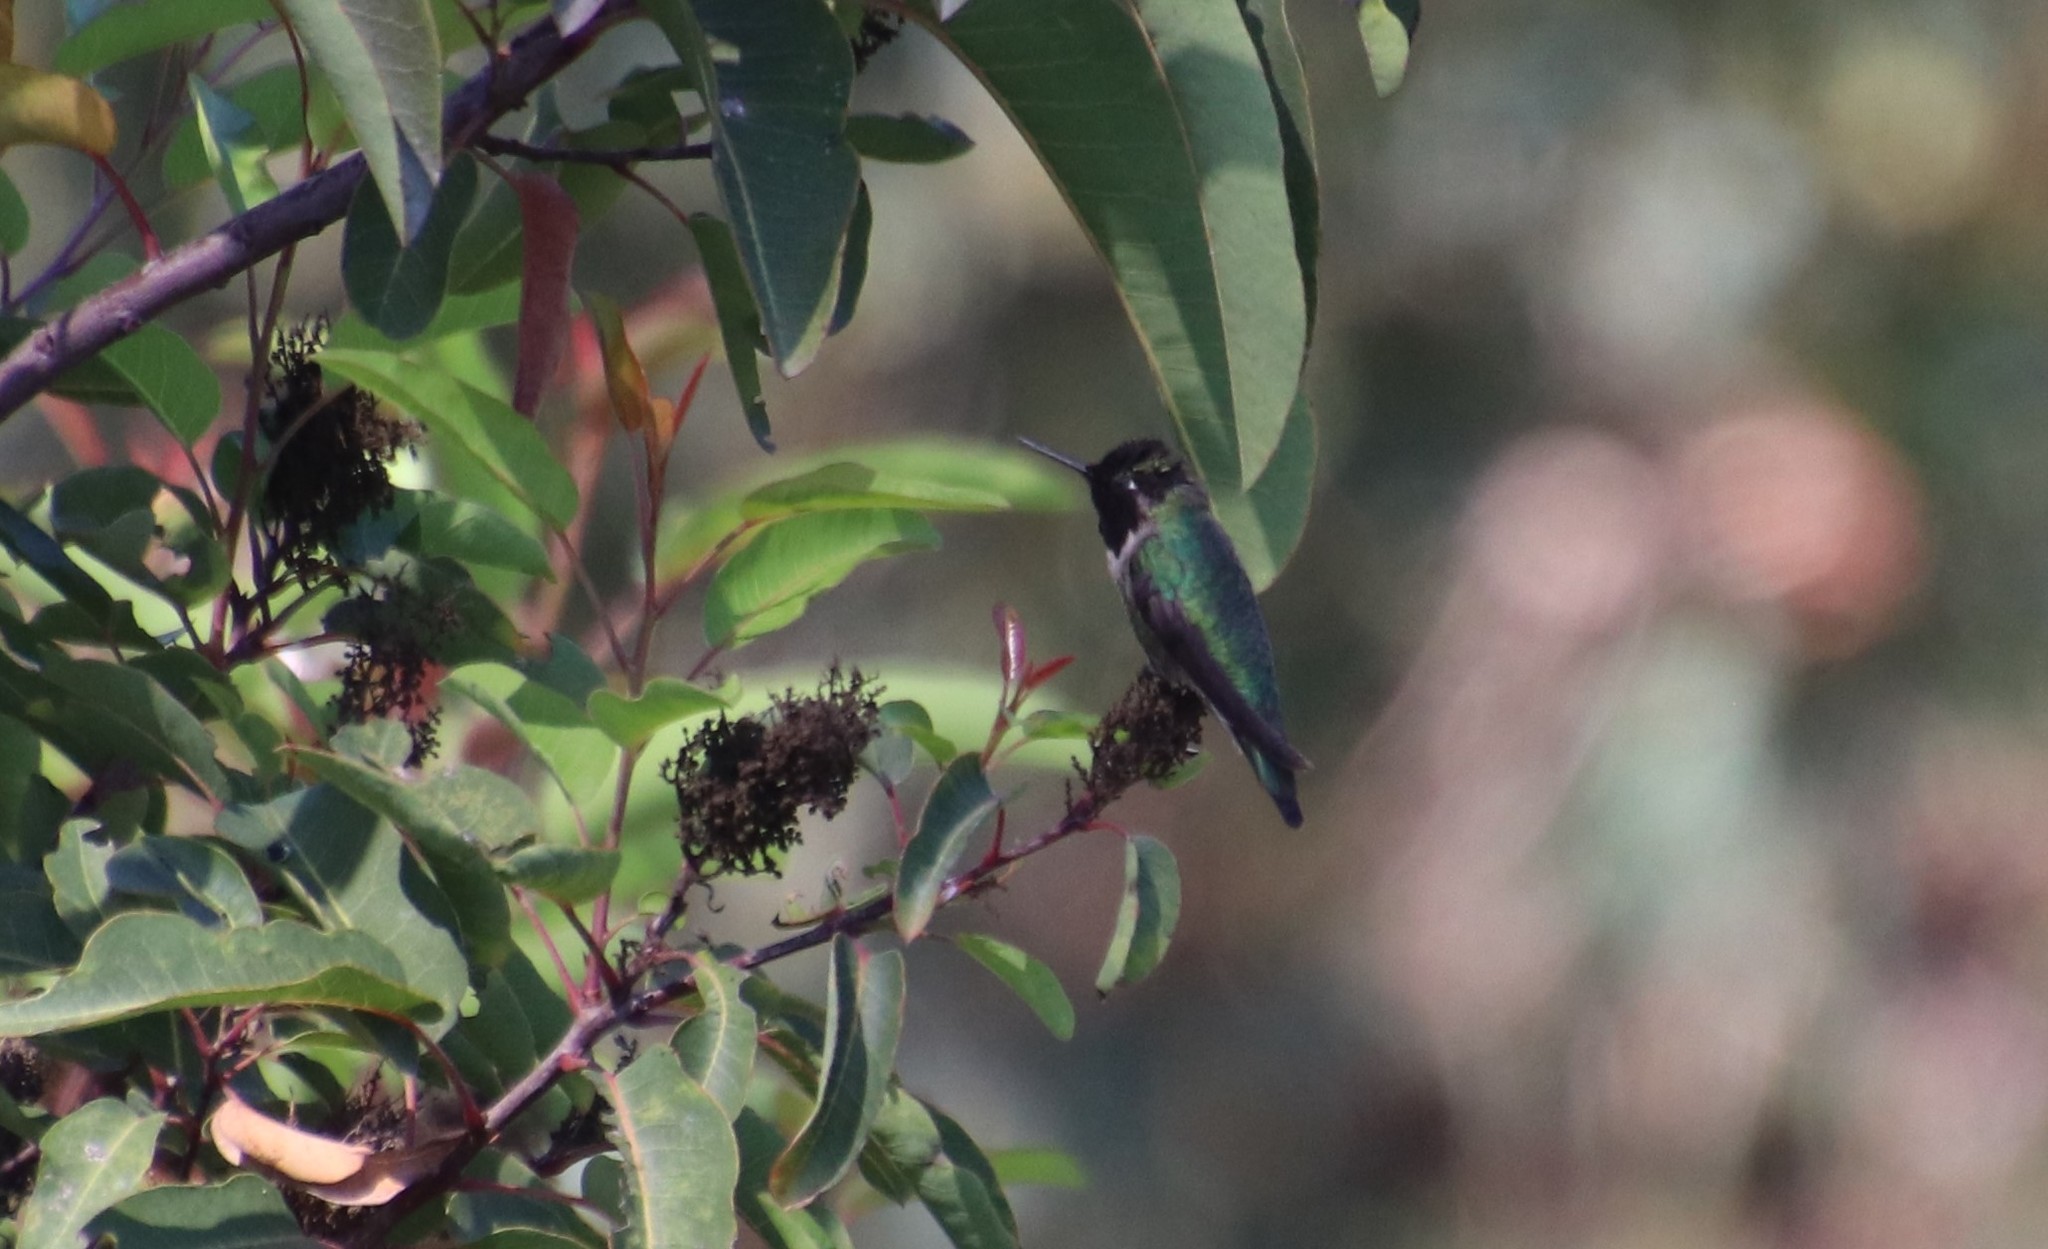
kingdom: Animalia
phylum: Chordata
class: Aves
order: Apodiformes
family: Trochilidae
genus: Calypte
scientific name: Calypte anna
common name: Anna's hummingbird
